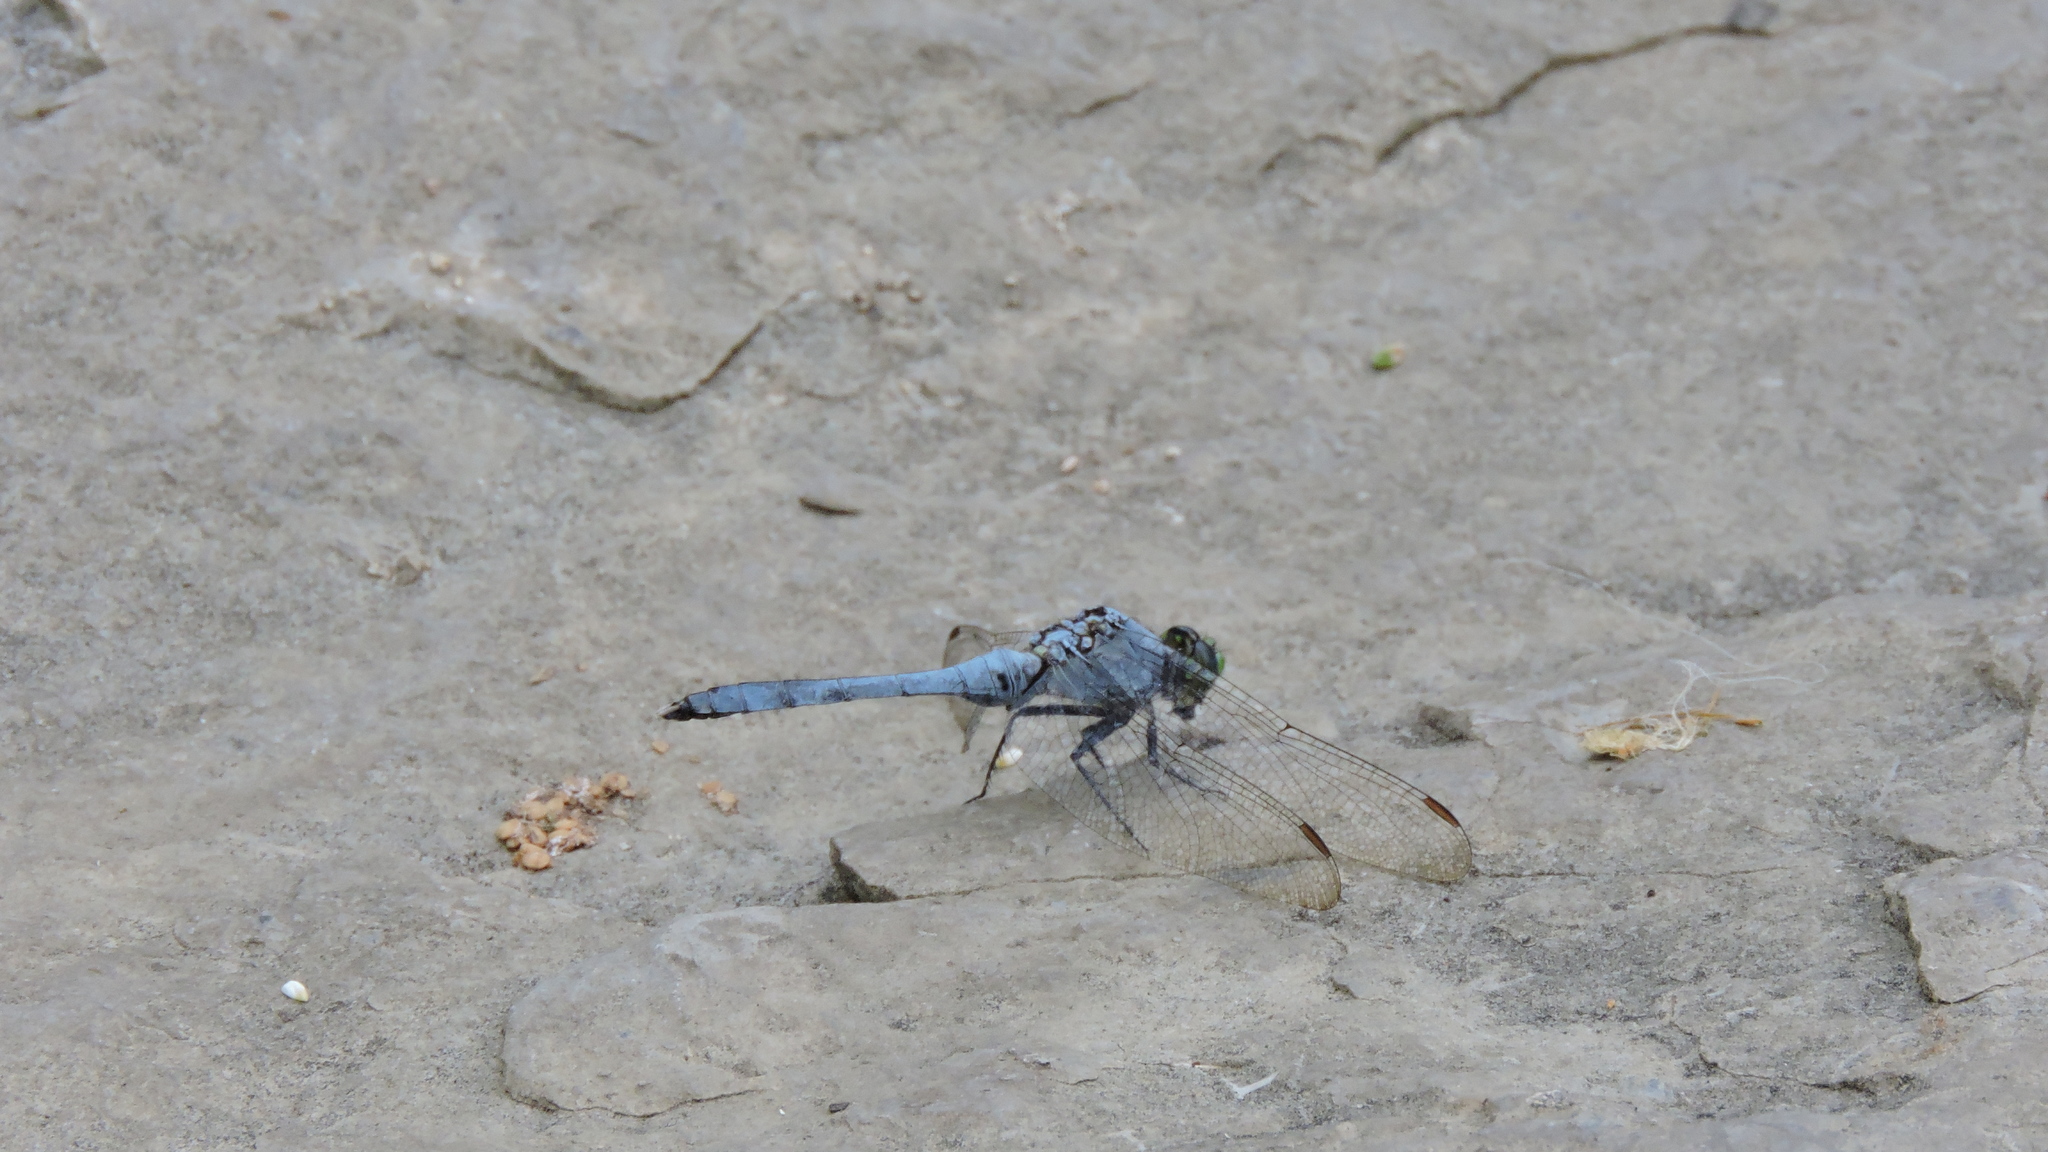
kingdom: Animalia
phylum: Arthropoda
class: Insecta
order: Odonata
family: Libellulidae
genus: Erythemis
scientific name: Erythemis simplicicollis
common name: Eastern pondhawk
